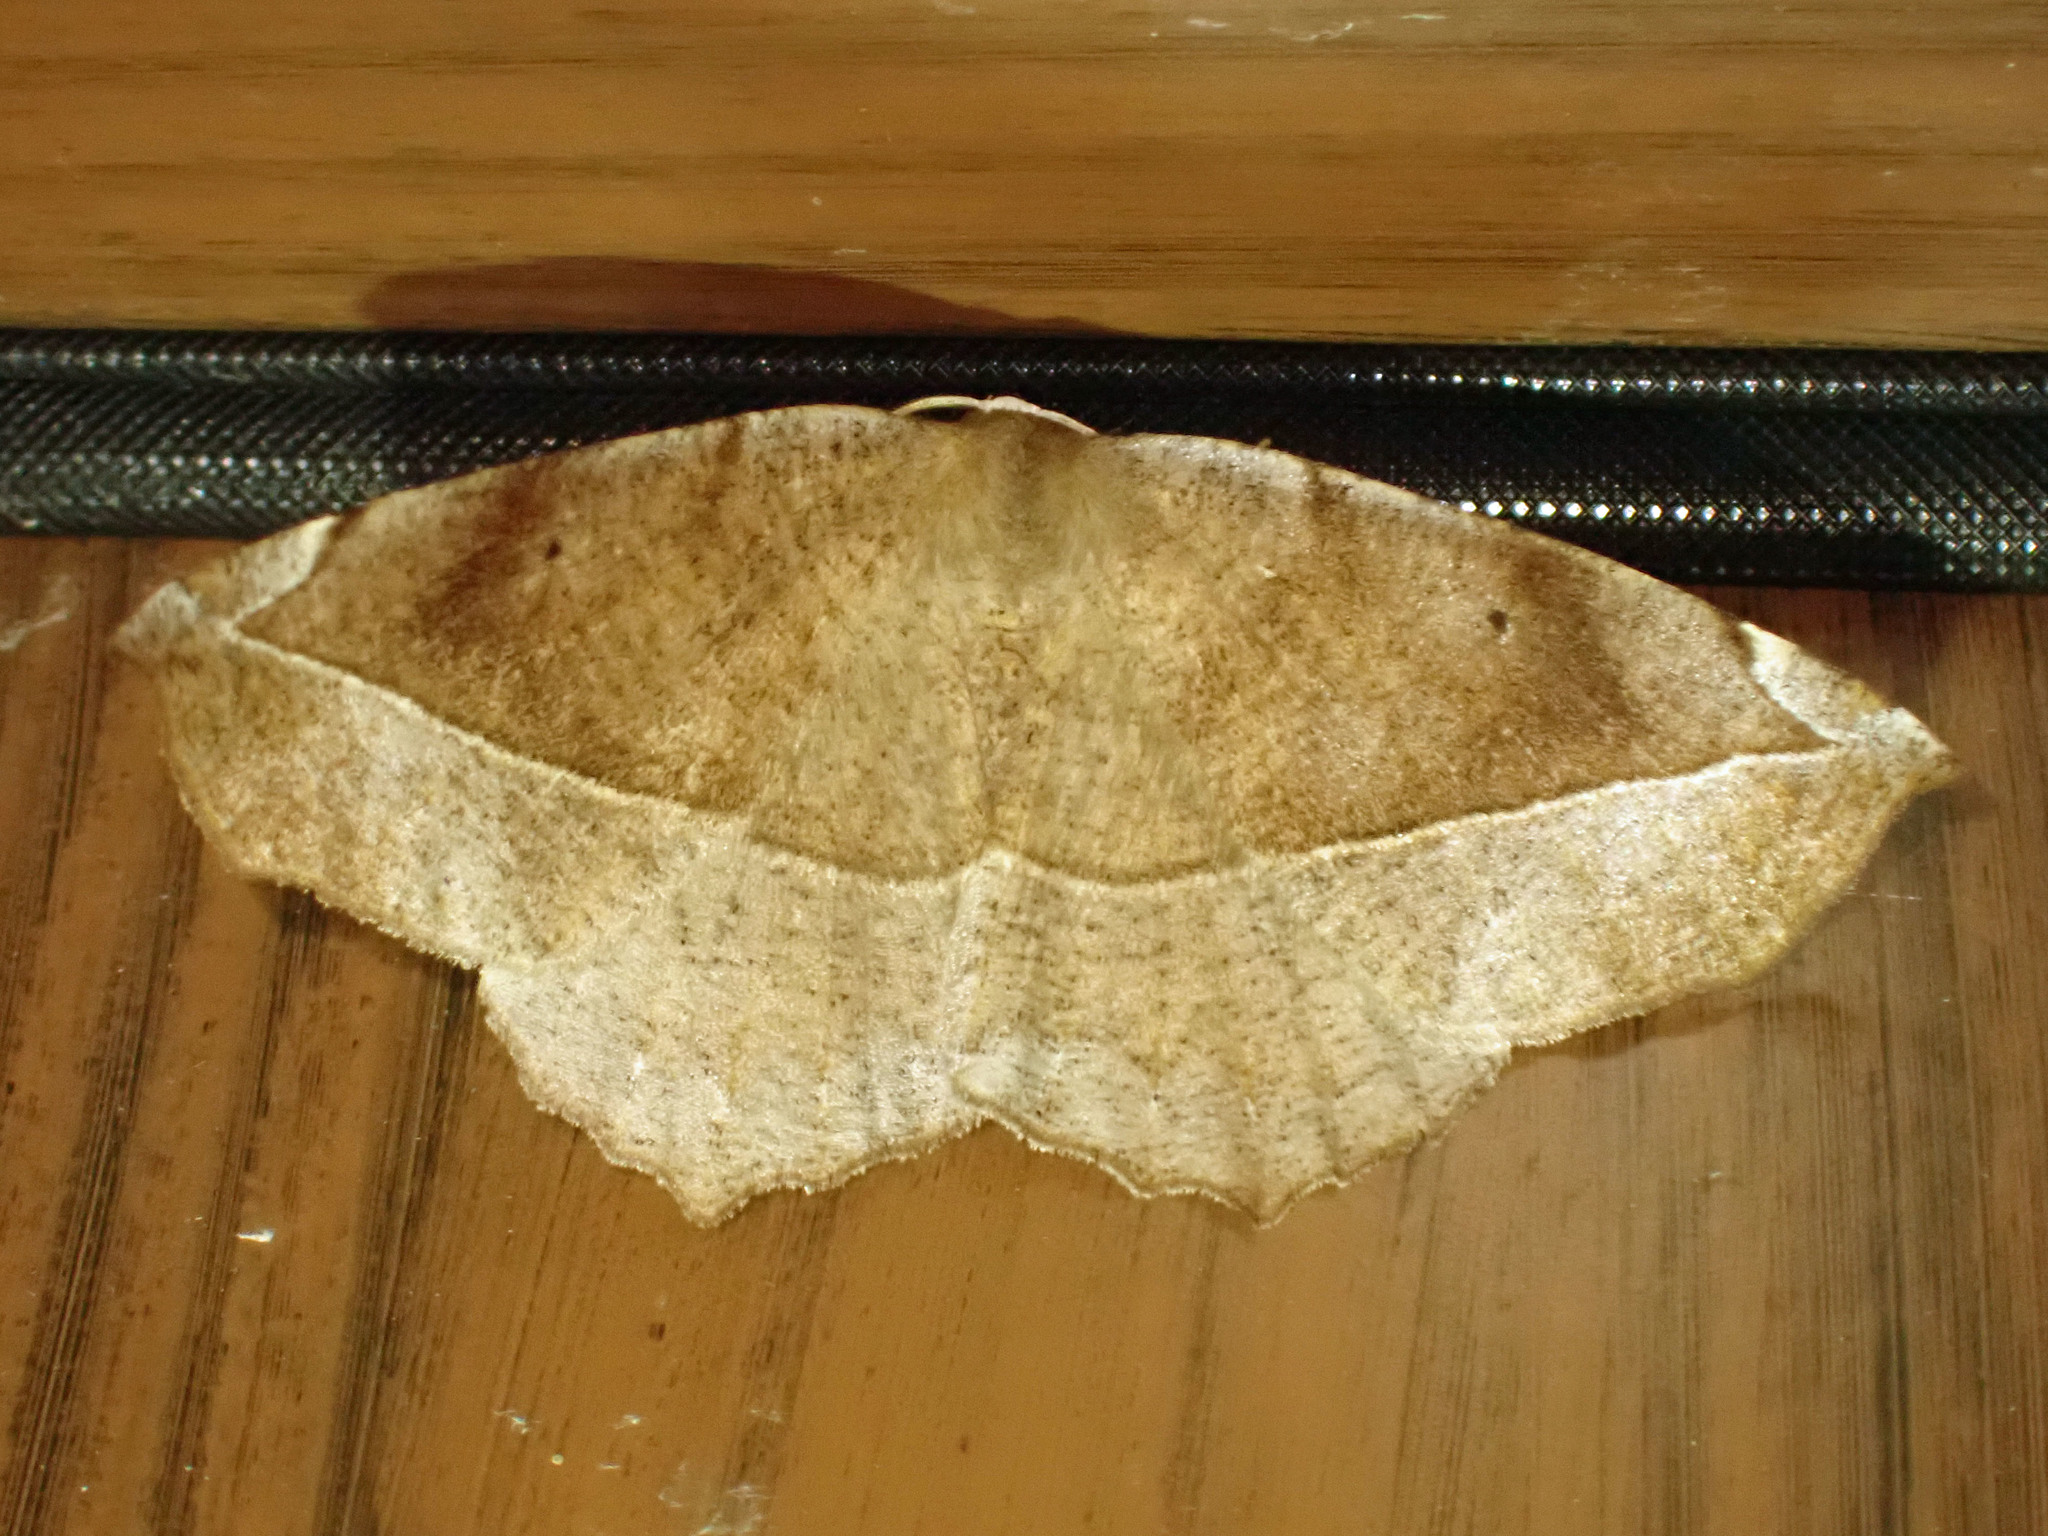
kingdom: Animalia
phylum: Arthropoda
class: Insecta
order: Lepidoptera
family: Geometridae
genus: Eutrapela
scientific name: Eutrapela clemataria
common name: Curved-toothed geometer
